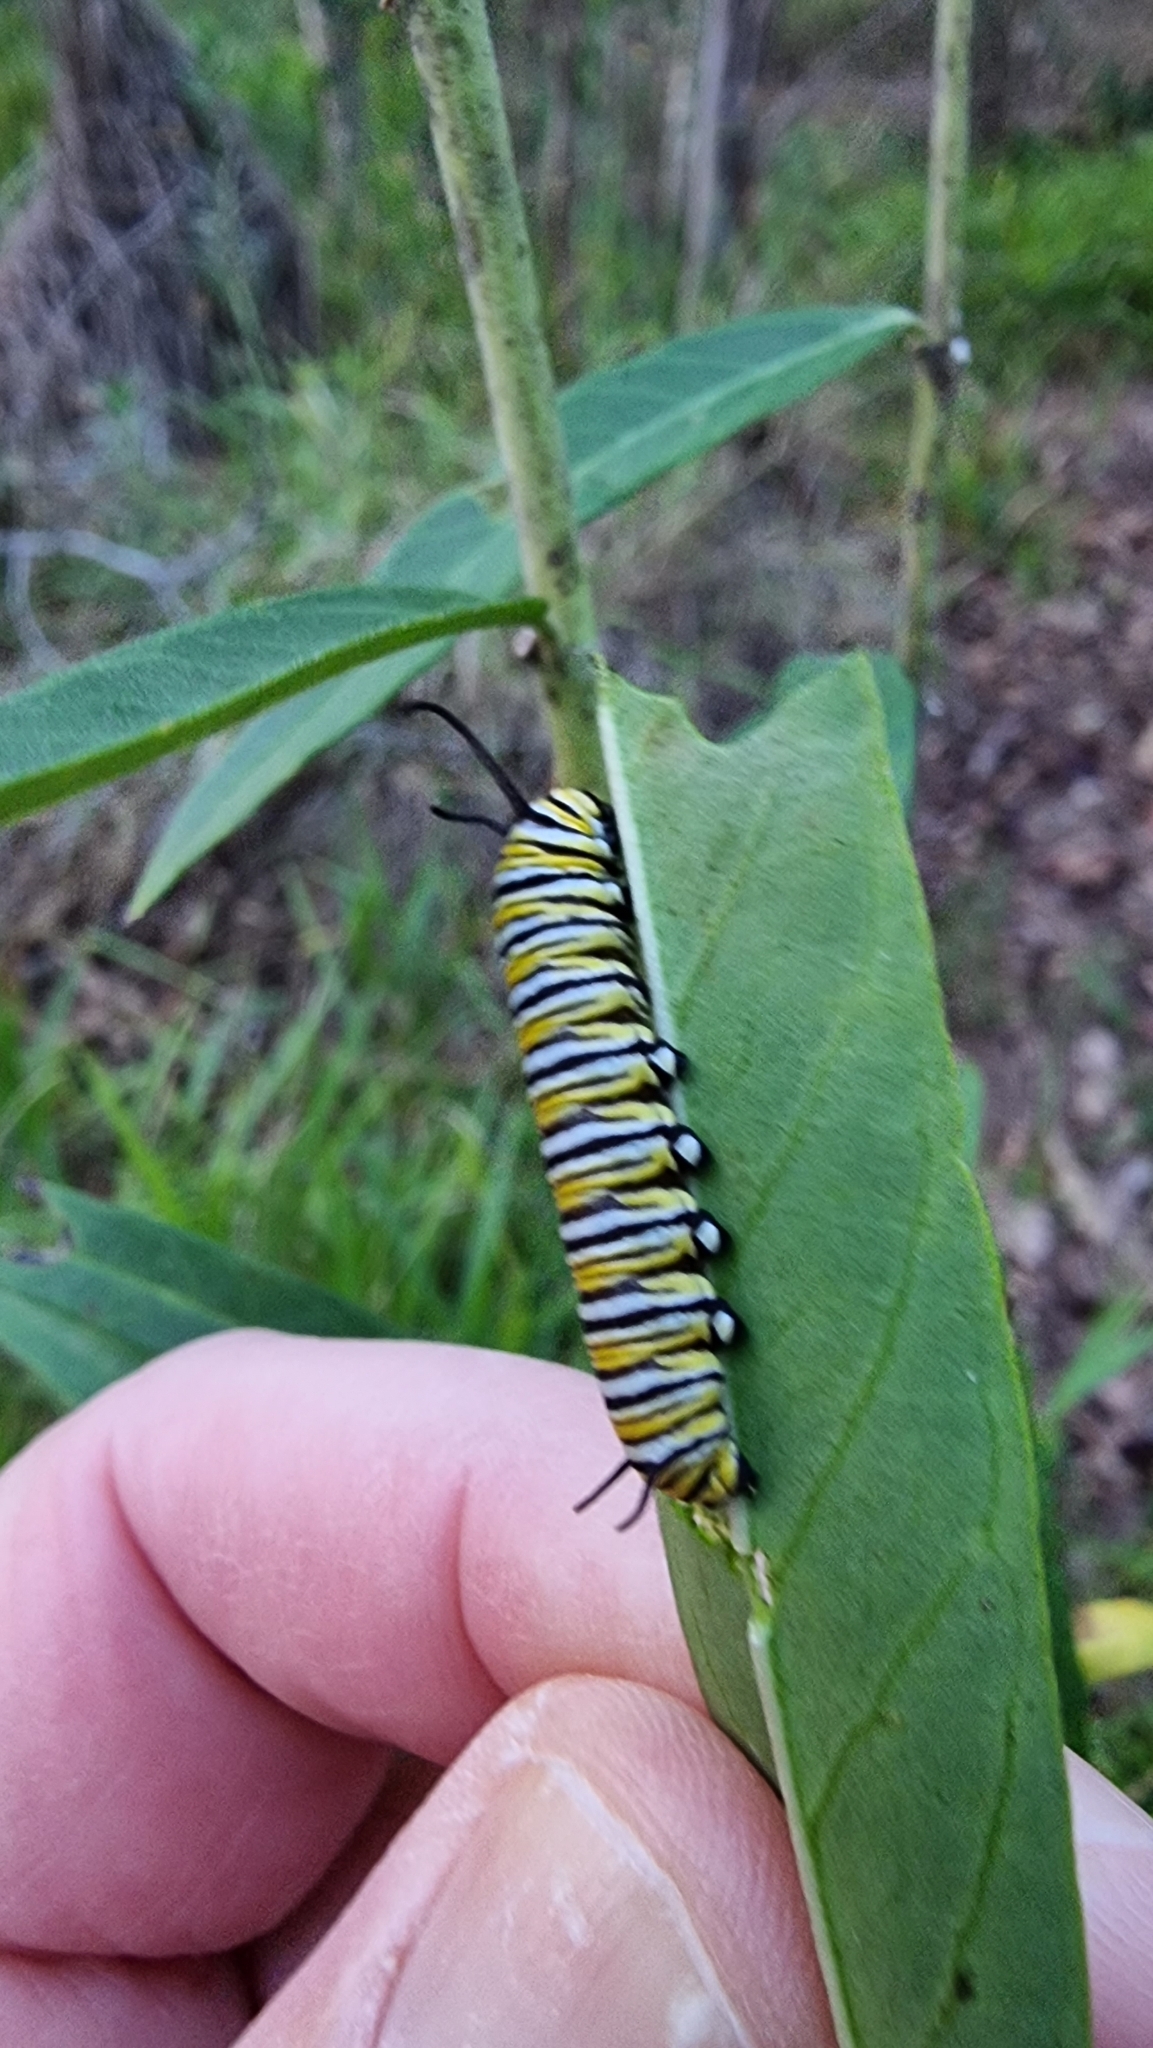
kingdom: Animalia
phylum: Arthropoda
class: Insecta
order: Lepidoptera
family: Nymphalidae
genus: Danaus
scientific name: Danaus plexippus
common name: Monarch
